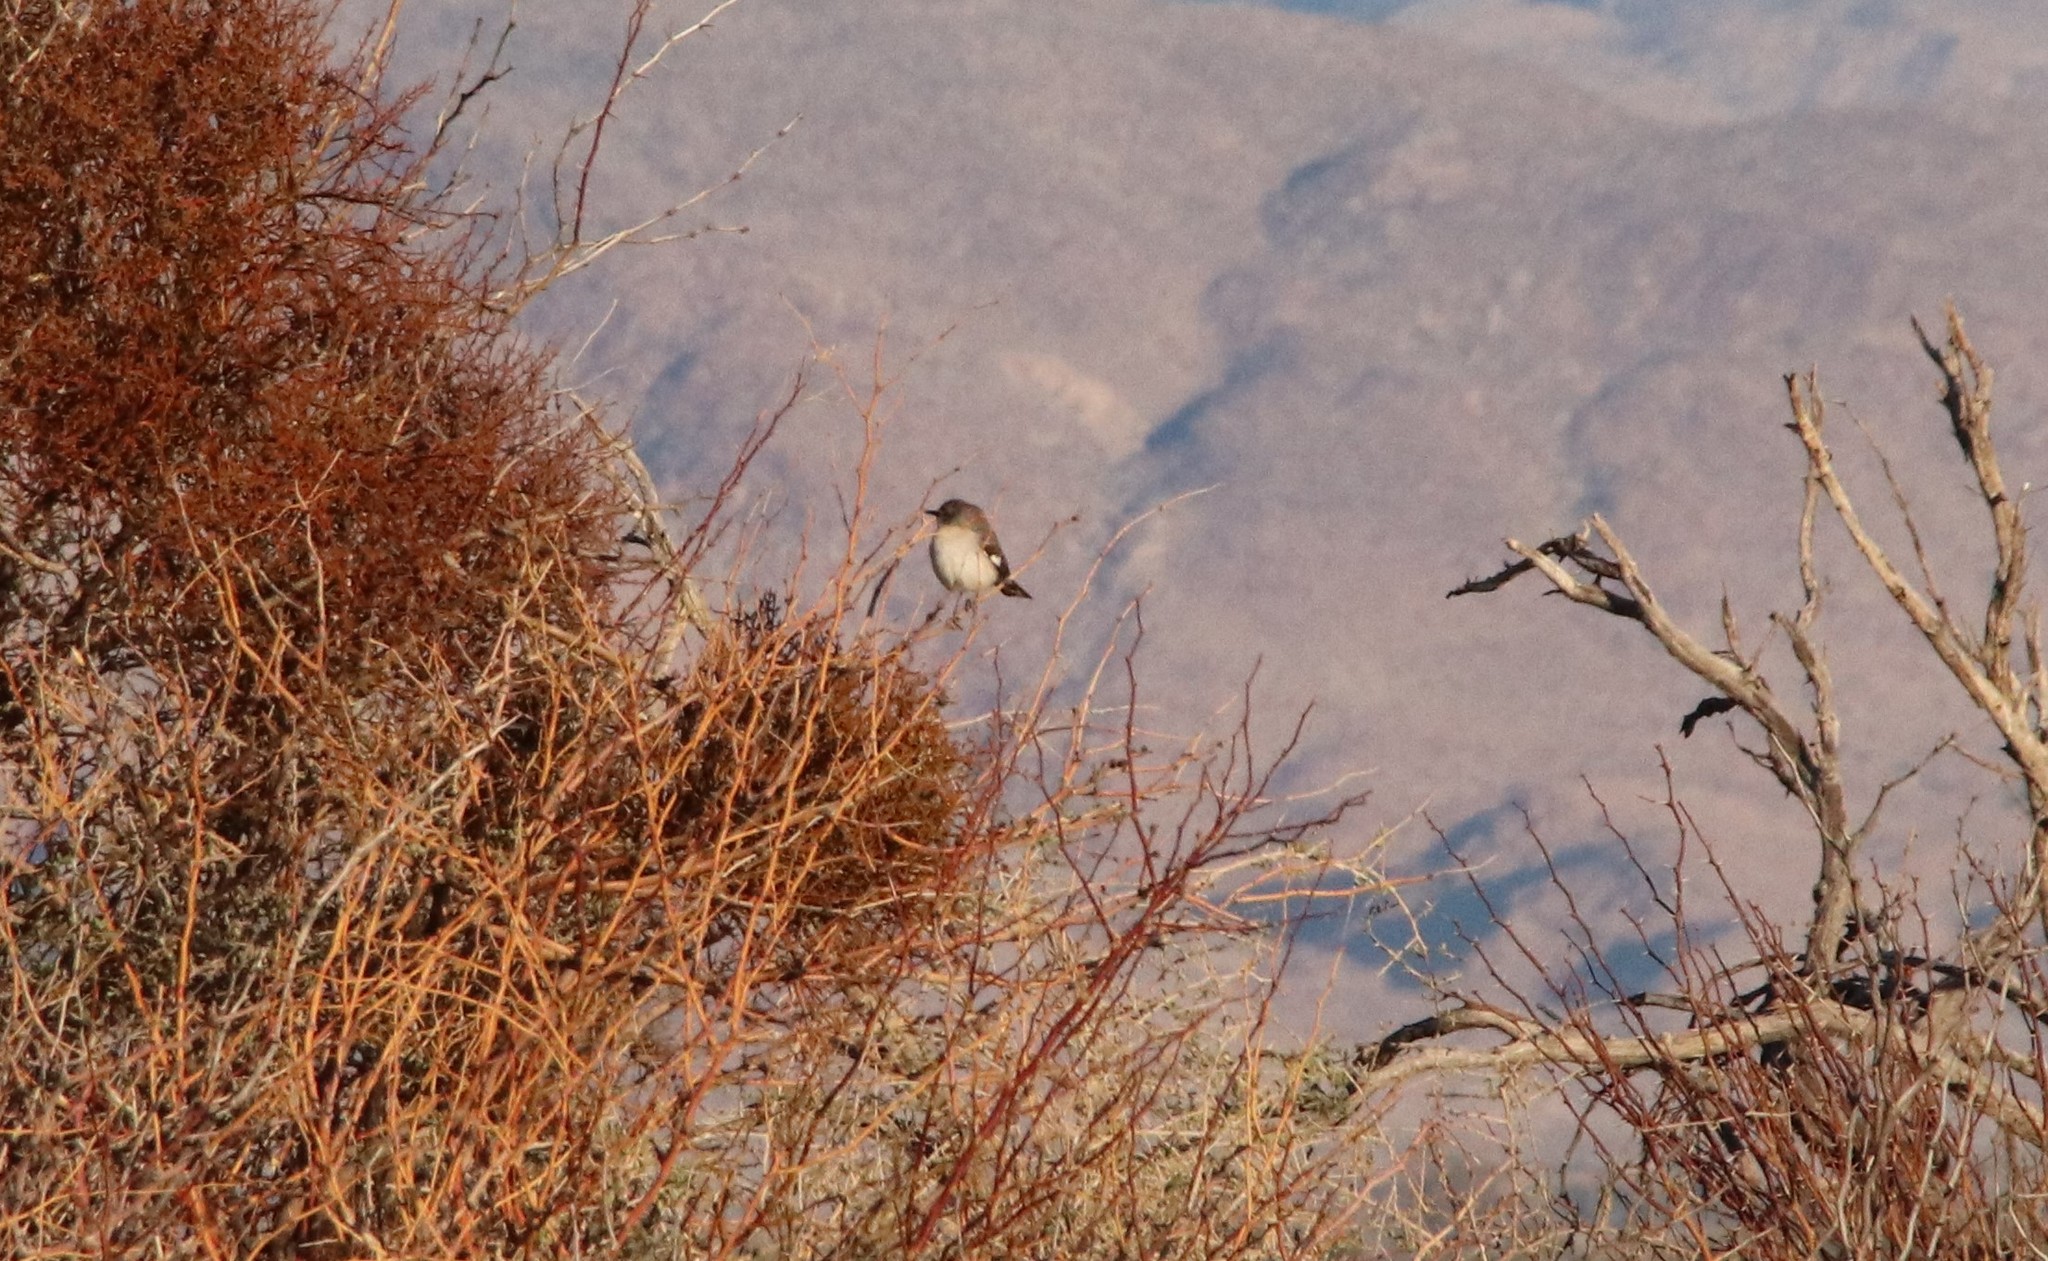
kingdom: Animalia
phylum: Chordata
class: Aves
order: Passeriformes
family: Mimidae
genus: Mimus
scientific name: Mimus polyglottos
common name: Northern mockingbird
